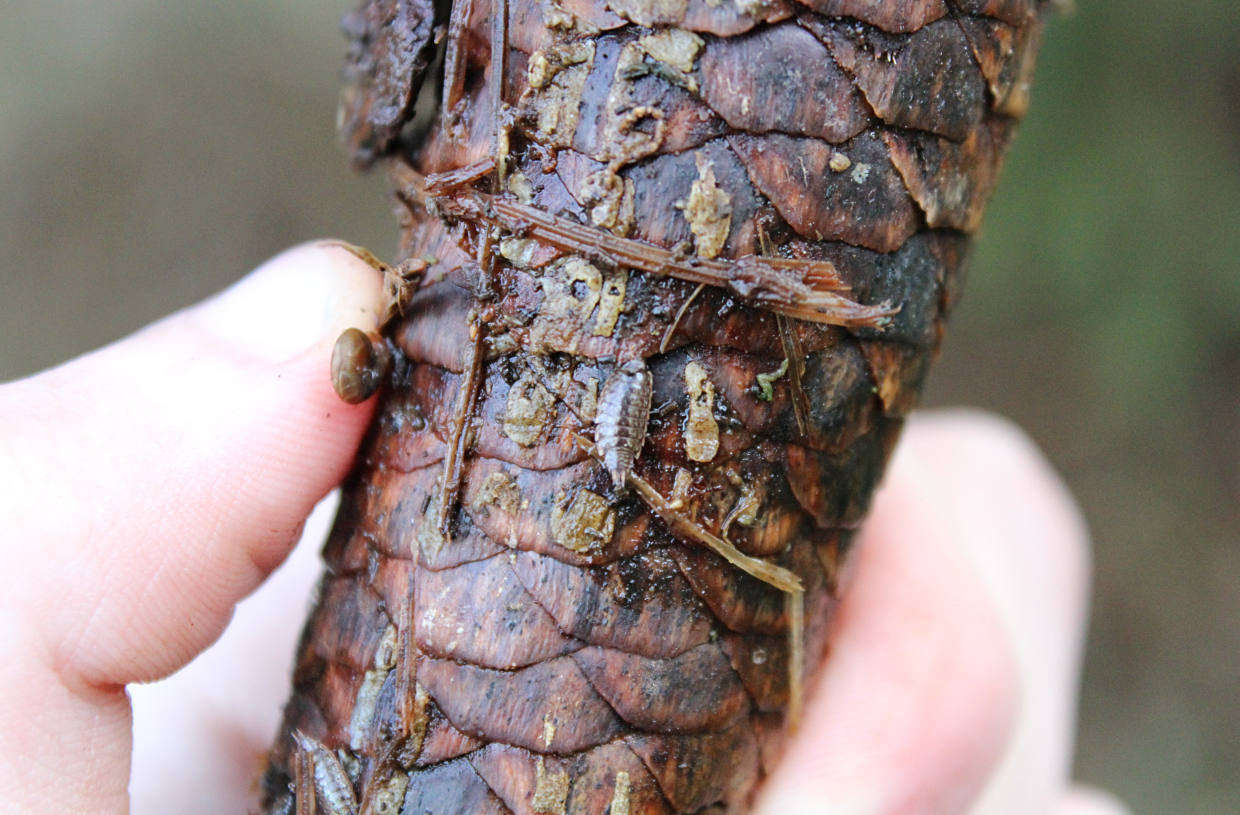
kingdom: Animalia
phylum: Arthropoda
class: Malacostraca
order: Isopoda
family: Philosciidae
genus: Philoscia
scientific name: Philoscia muscorum
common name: Common striped woodlouse
